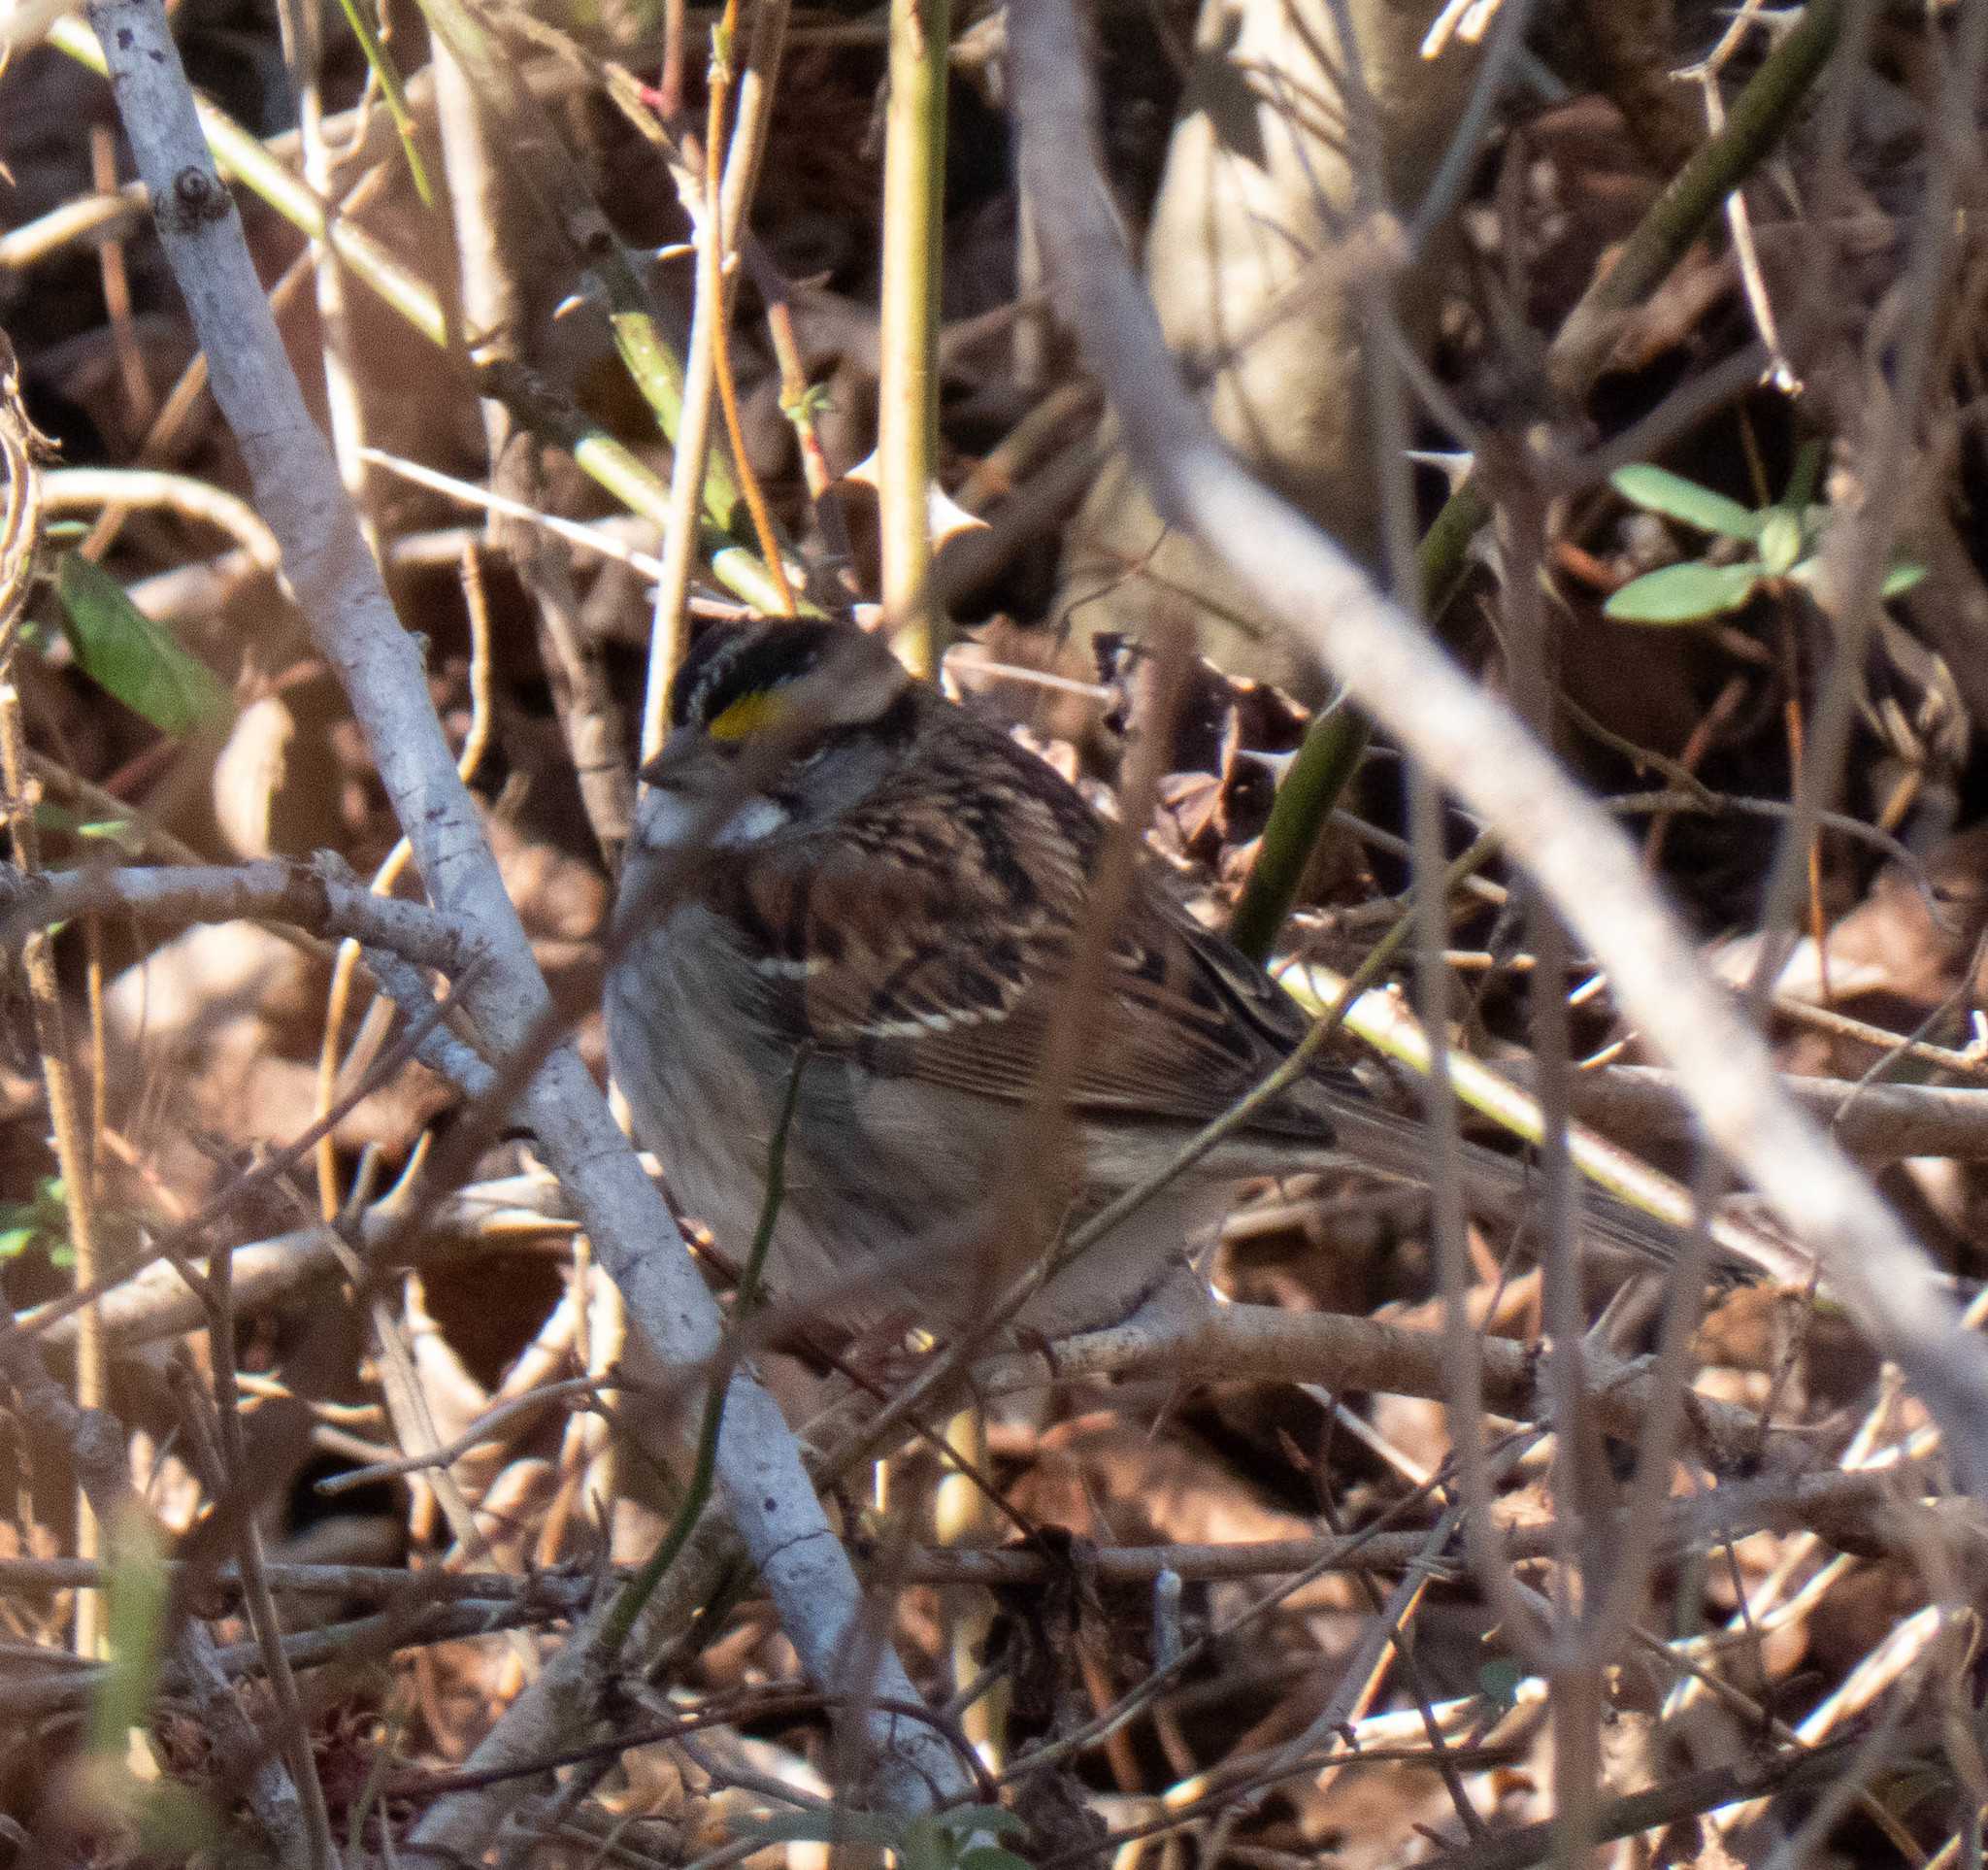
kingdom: Animalia
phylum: Chordata
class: Aves
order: Passeriformes
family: Passerellidae
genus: Zonotrichia
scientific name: Zonotrichia albicollis
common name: White-throated sparrow
